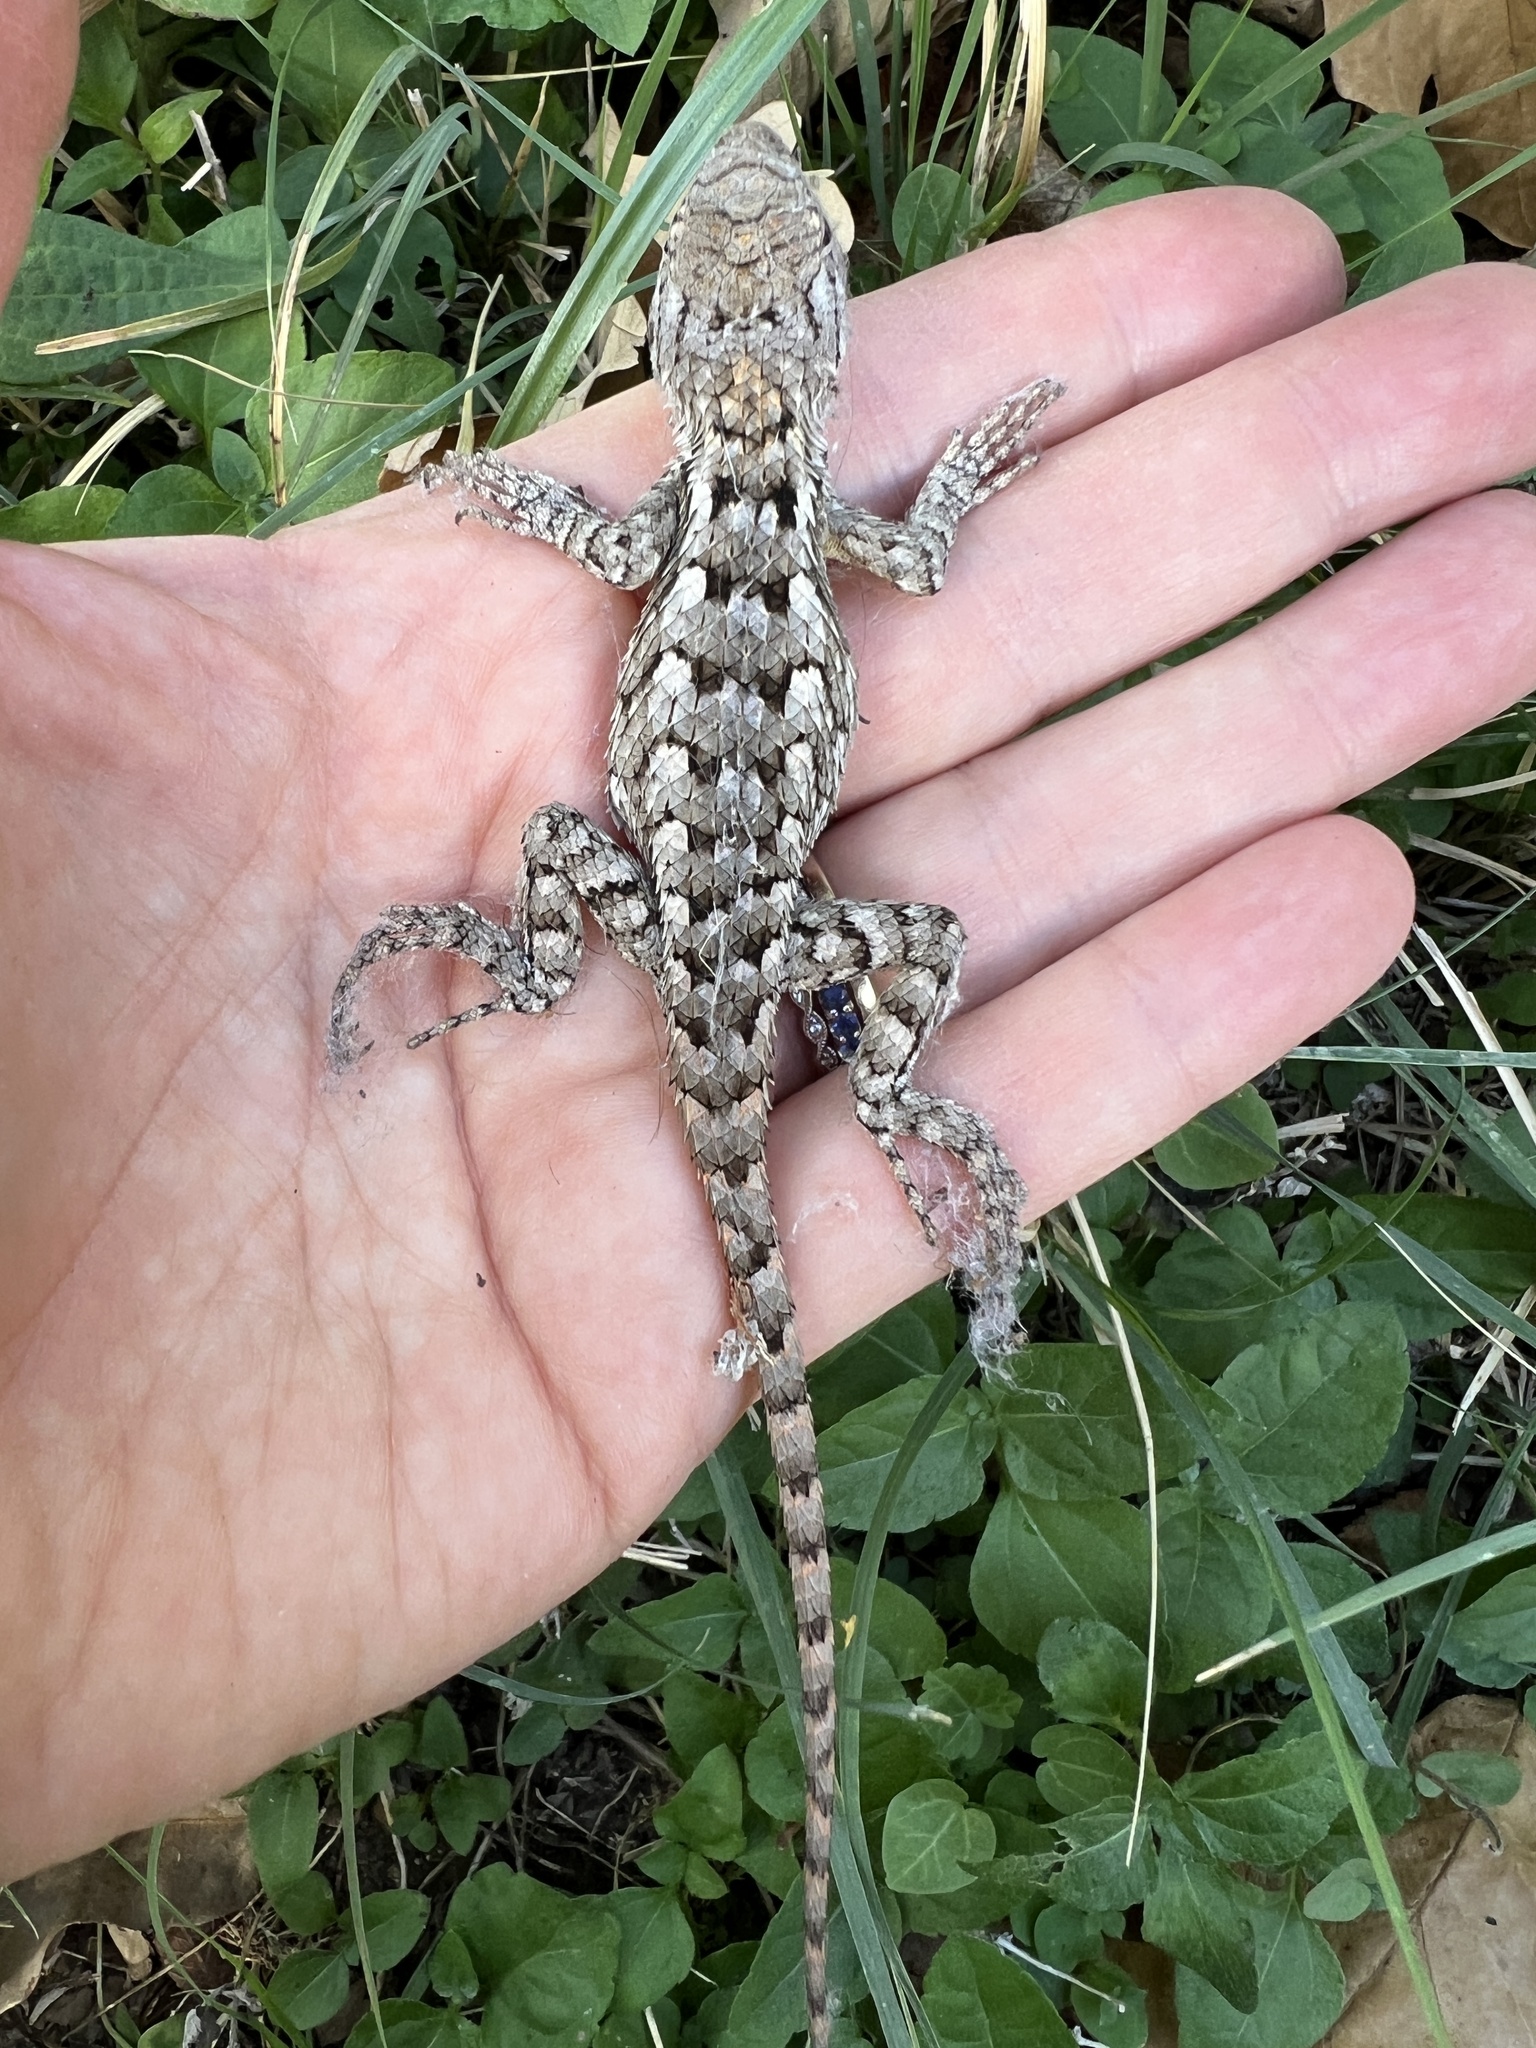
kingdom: Animalia
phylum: Chordata
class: Squamata
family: Phrynosomatidae
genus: Sceloporus
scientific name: Sceloporus olivaceus
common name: Texas spiny lizard
